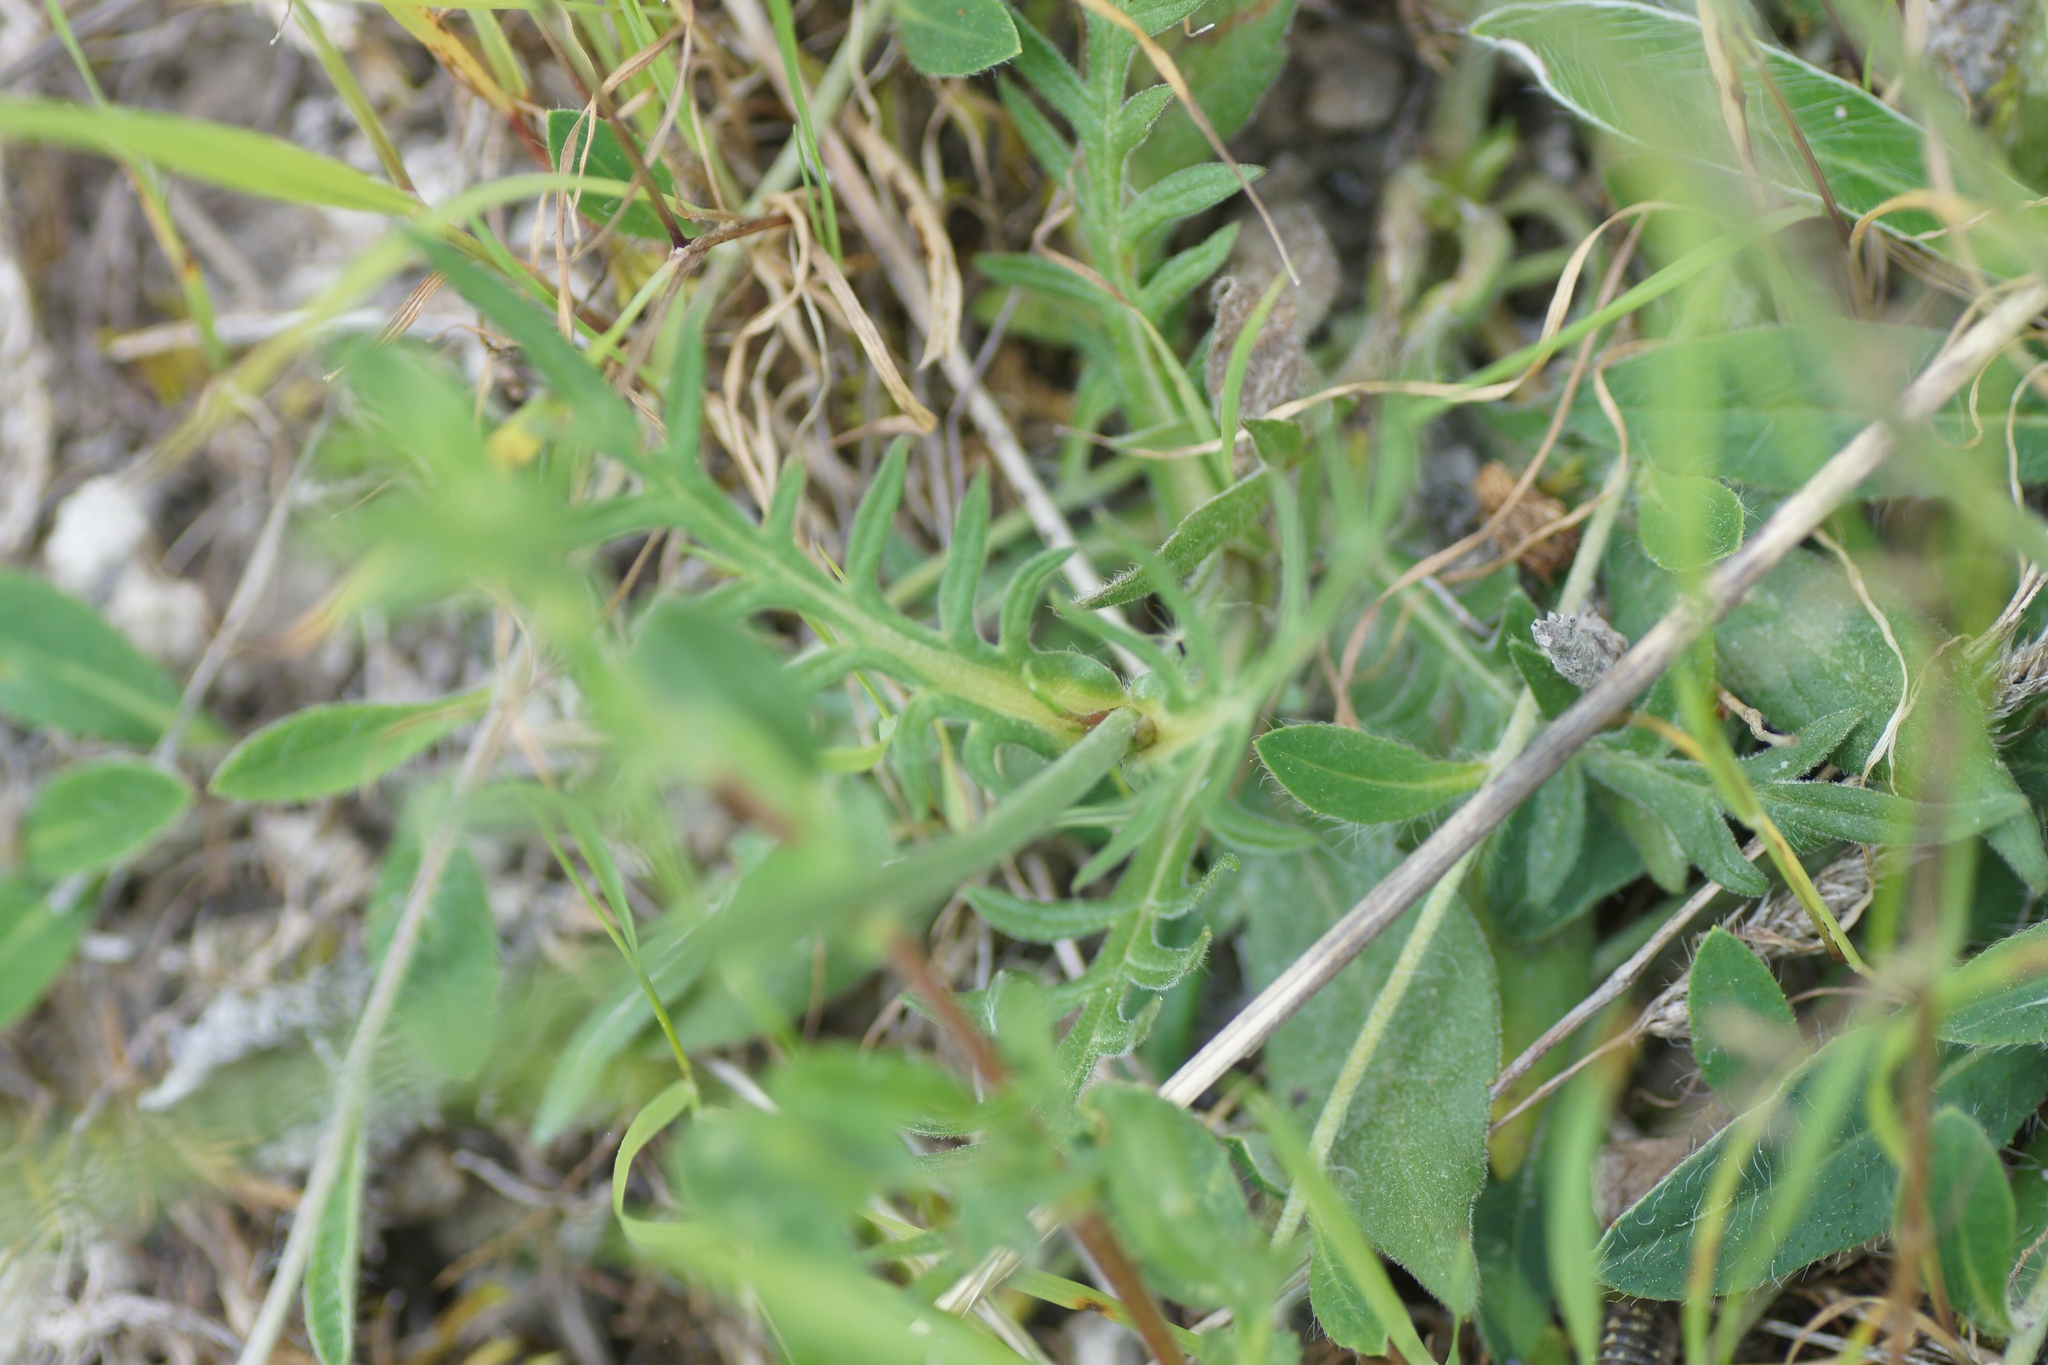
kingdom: Plantae
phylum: Tracheophyta
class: Magnoliopsida
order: Dipsacales
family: Caprifoliaceae
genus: Knautia
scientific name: Knautia arvensis
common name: Field scabiosa
